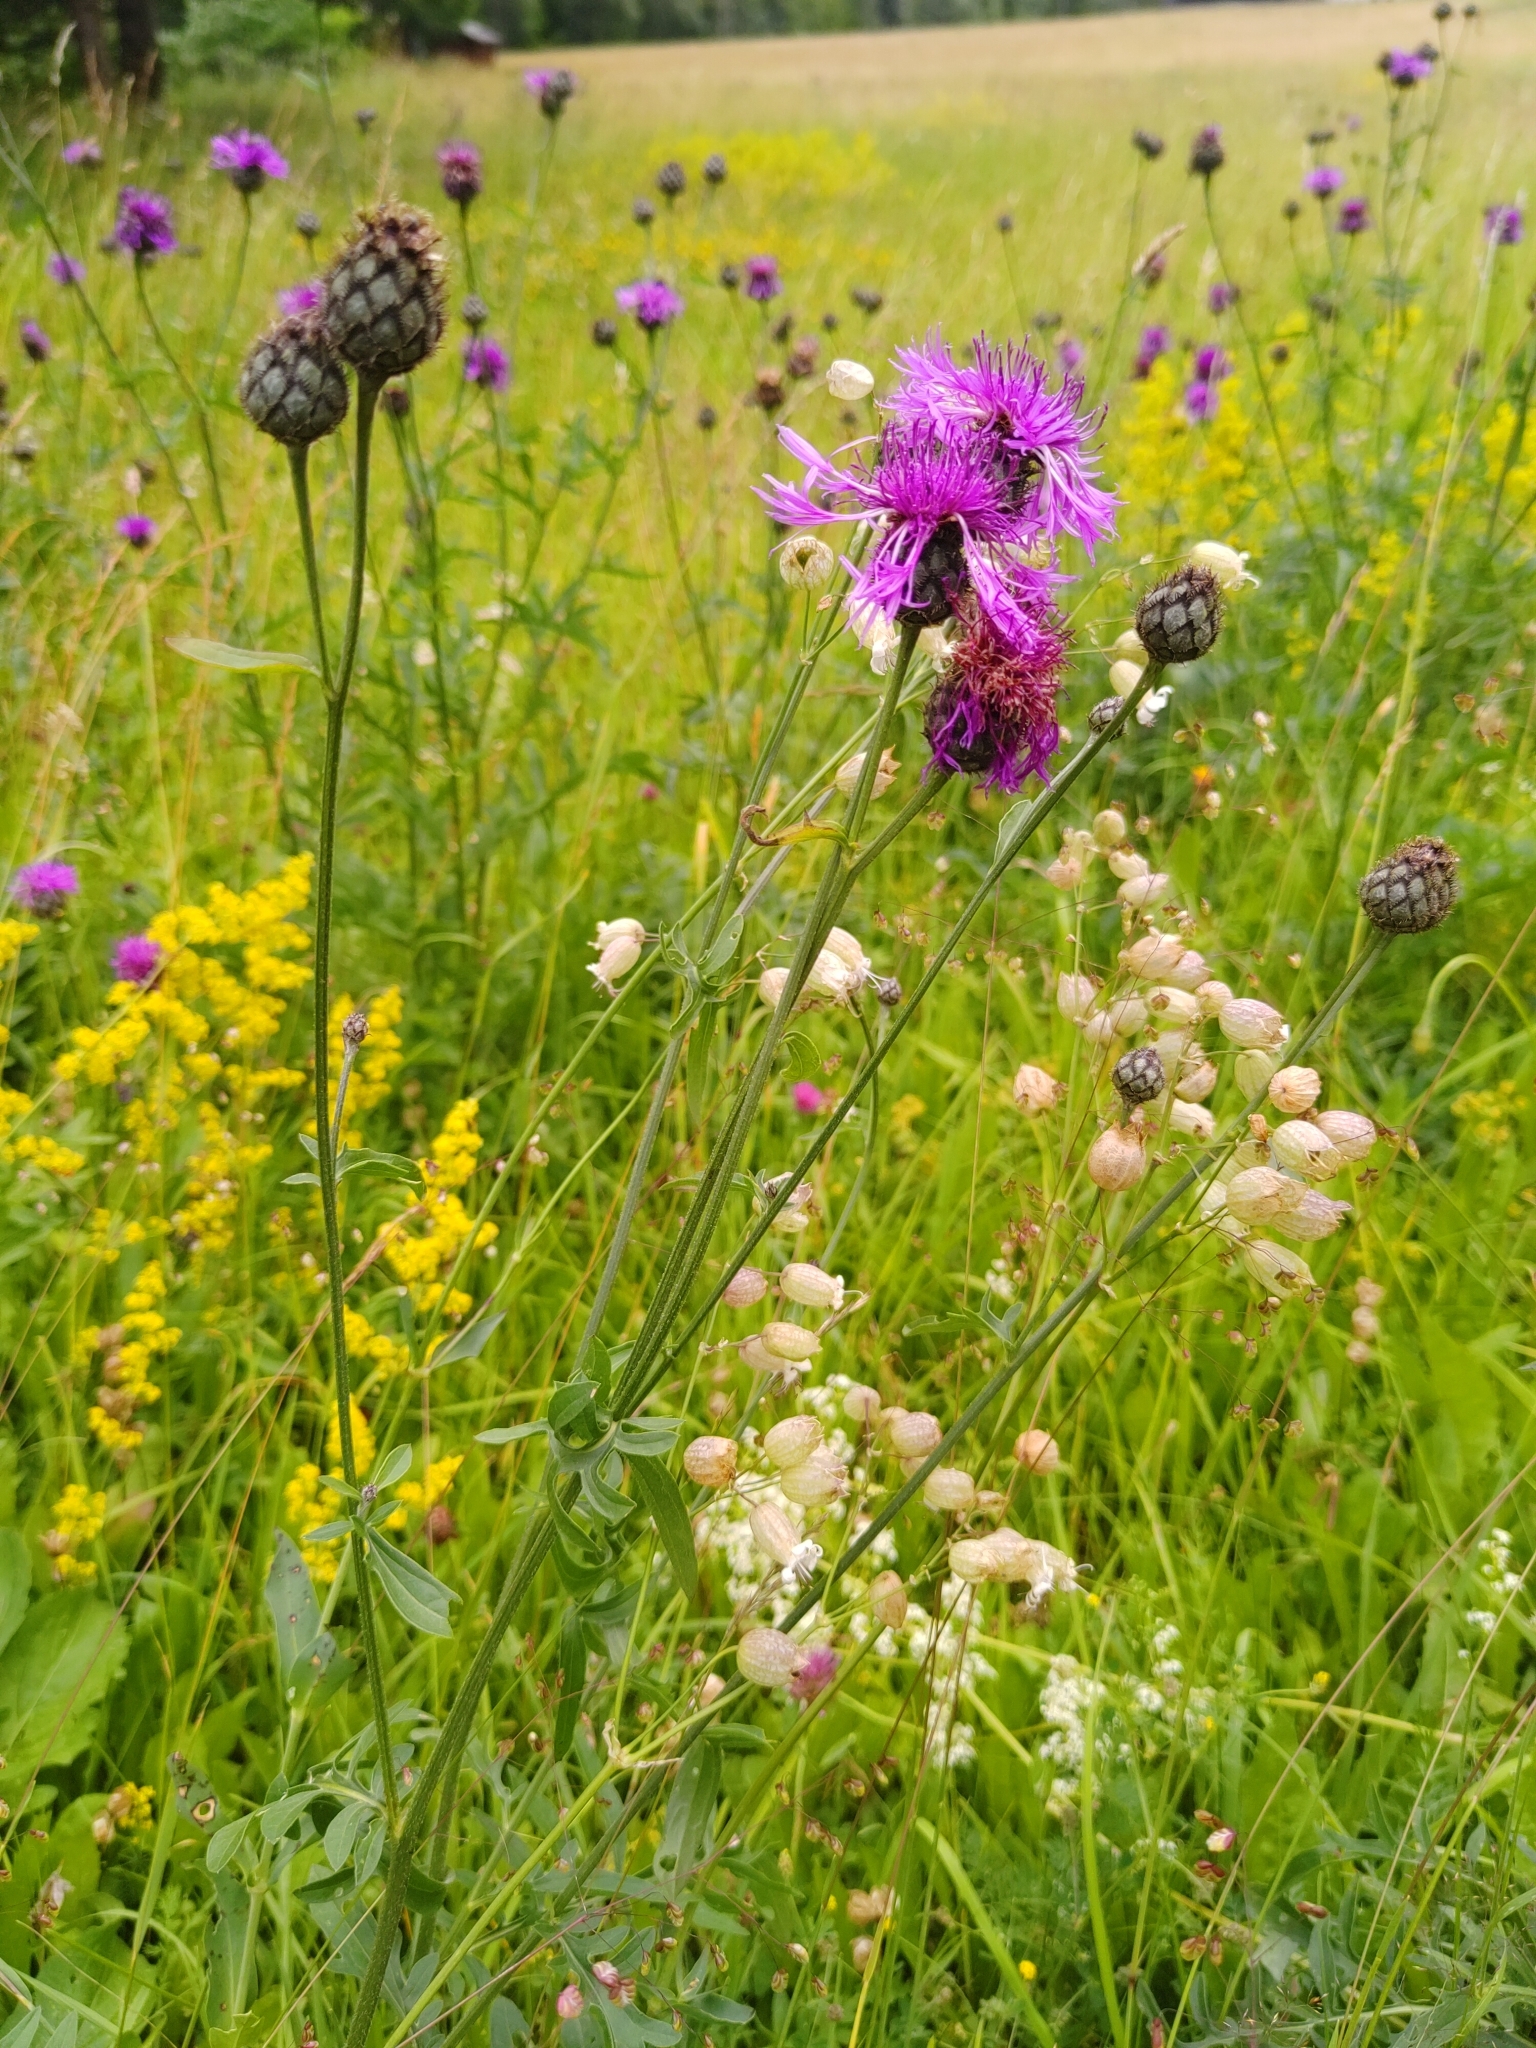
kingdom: Plantae
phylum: Tracheophyta
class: Magnoliopsida
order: Asterales
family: Asteraceae
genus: Centaurea
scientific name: Centaurea scabiosa
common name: Greater knapweed
